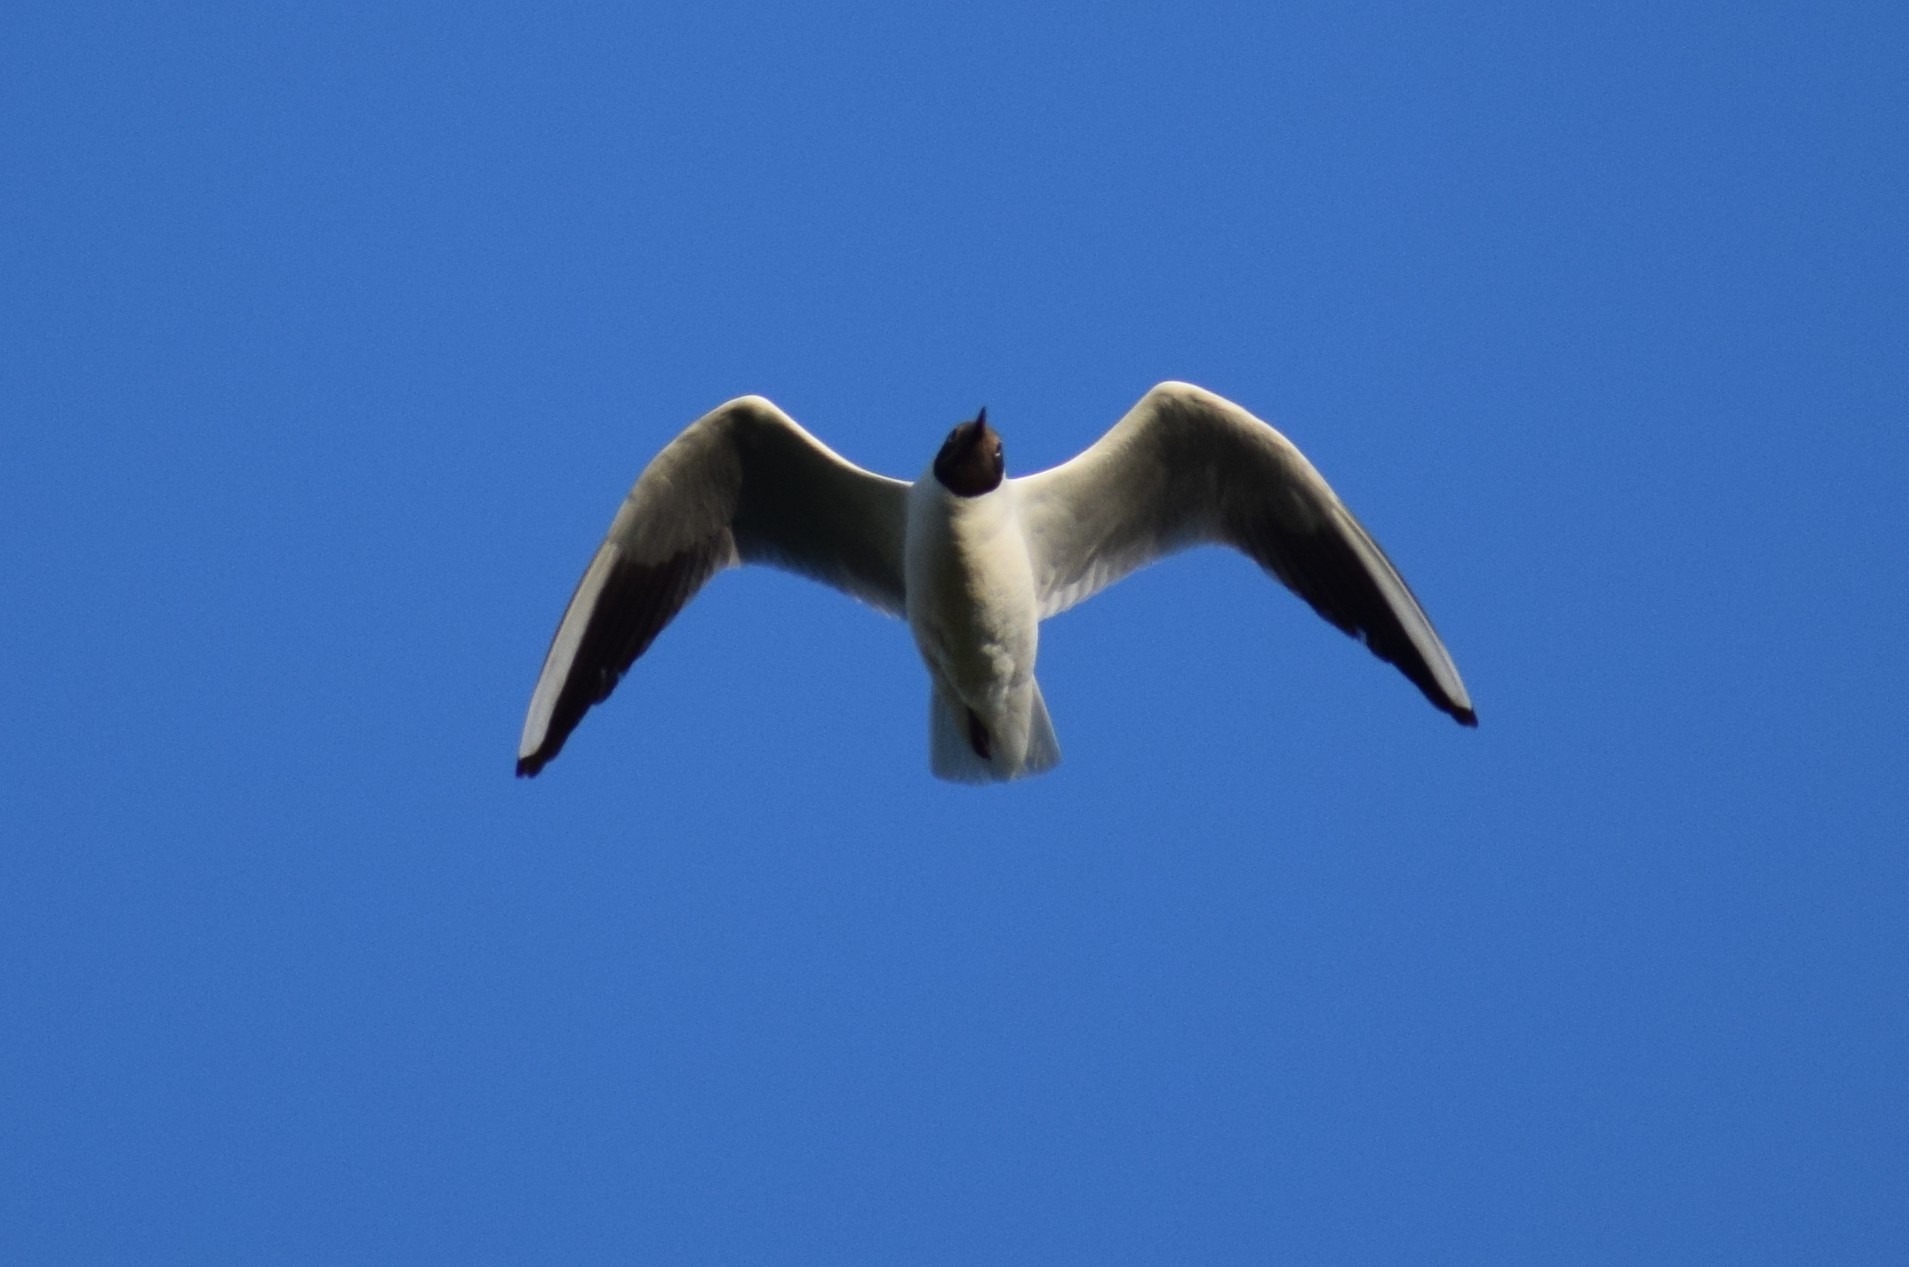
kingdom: Animalia
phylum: Chordata
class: Aves
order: Charadriiformes
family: Laridae
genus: Chroicocephalus
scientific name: Chroicocephalus ridibundus
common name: Black-headed gull
